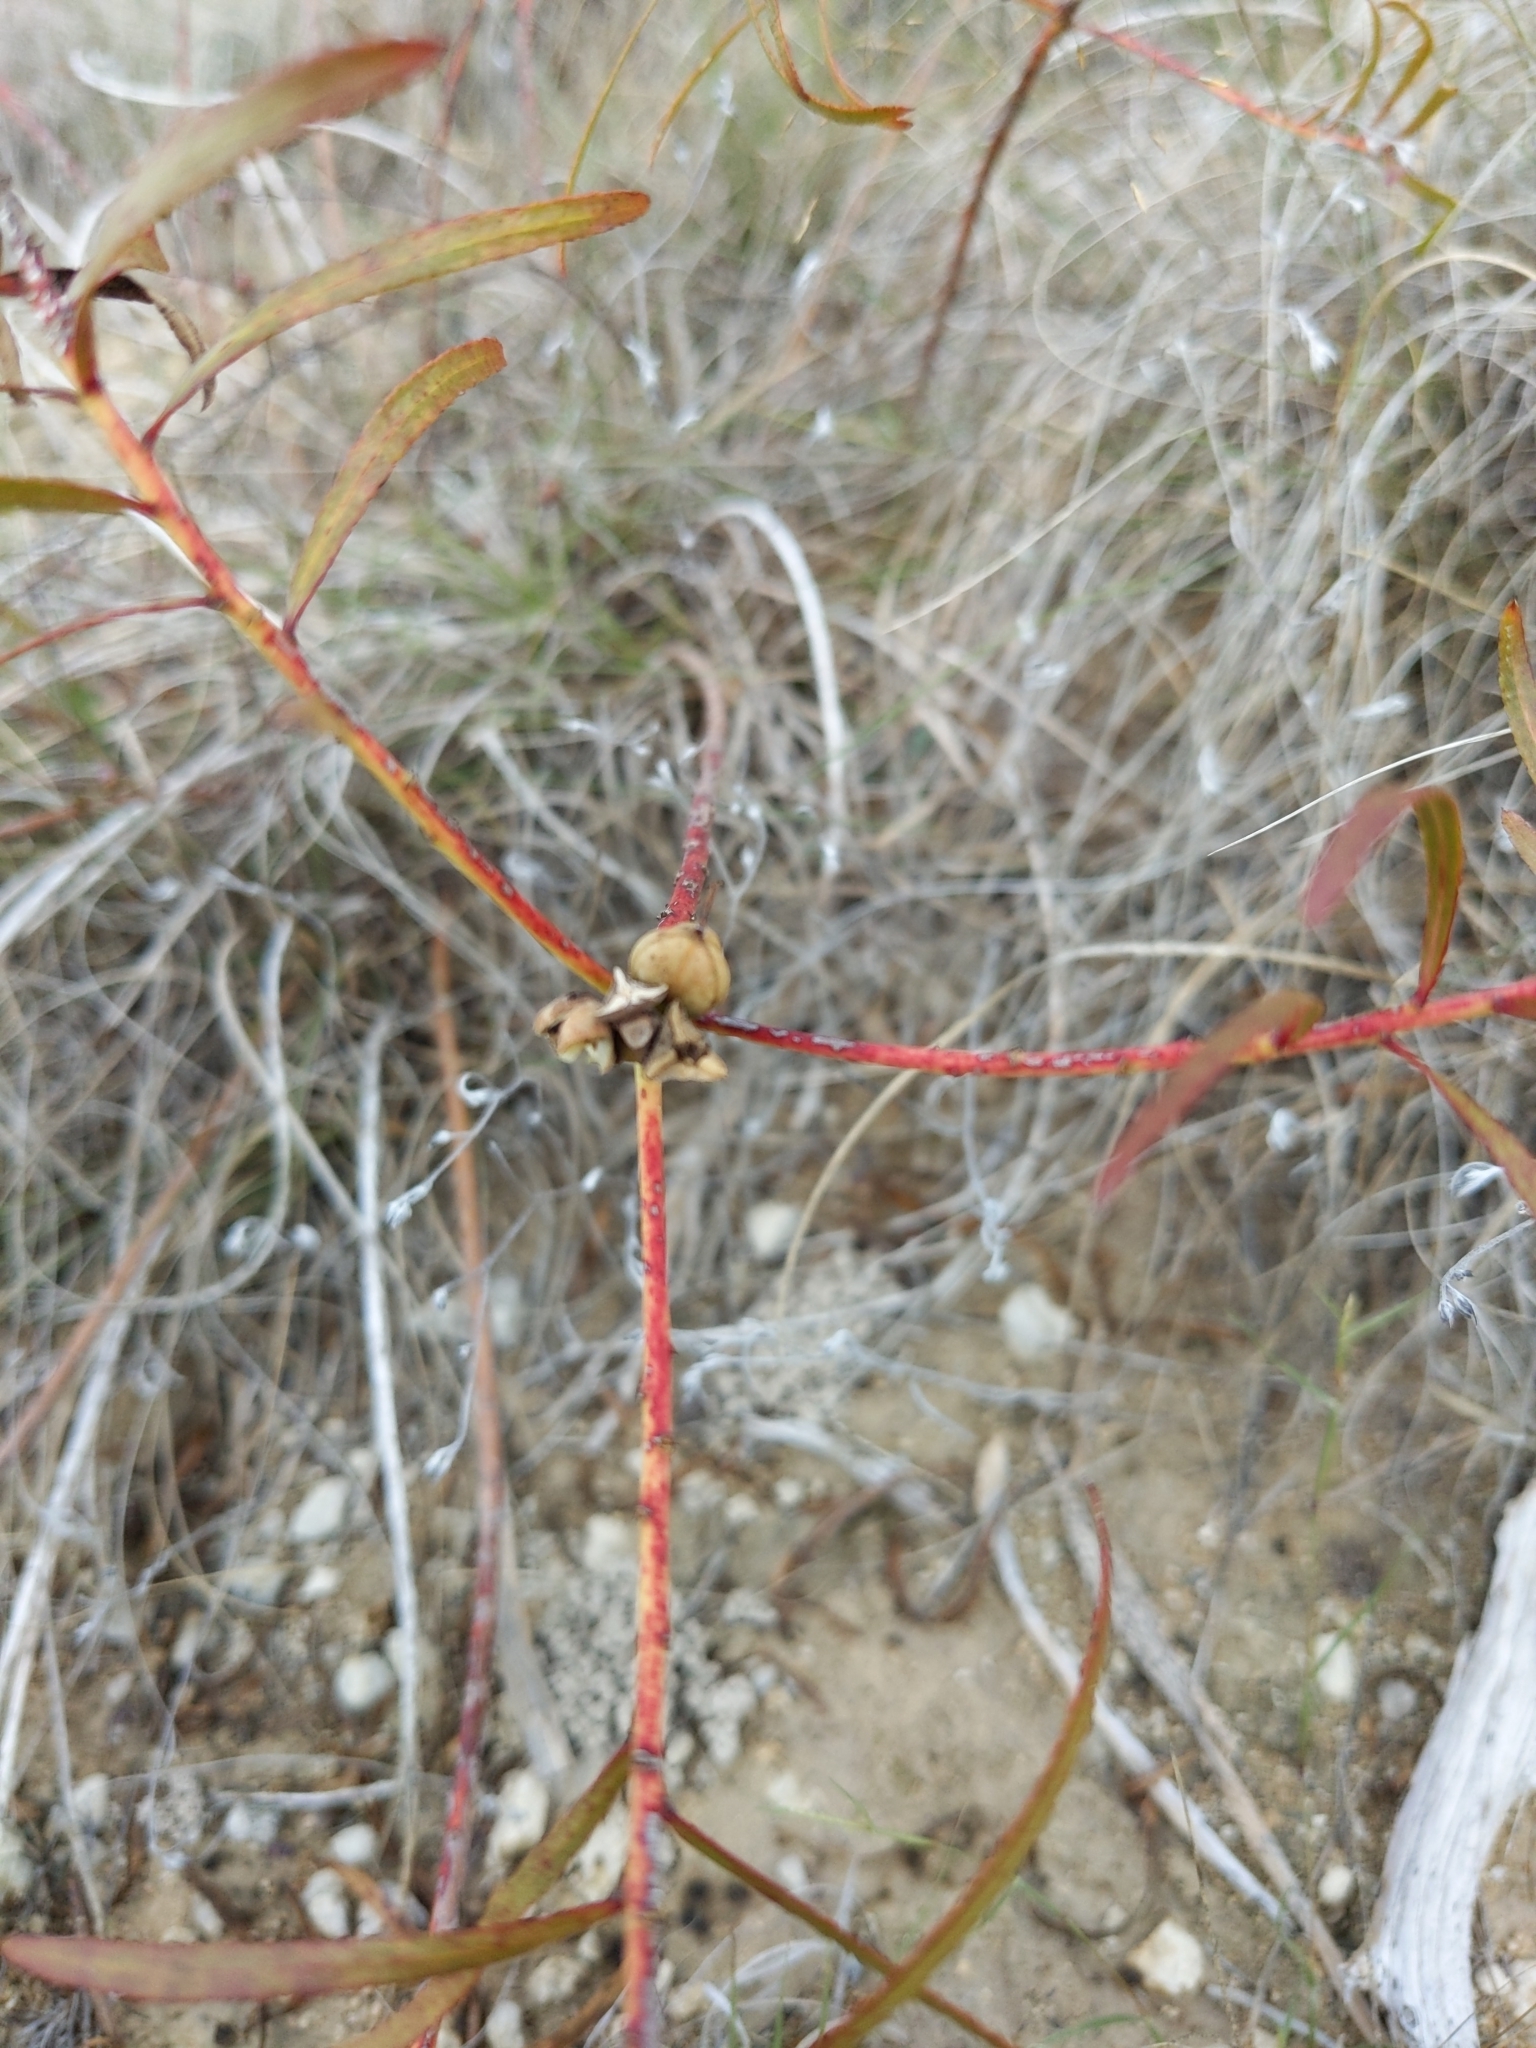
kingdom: Plantae
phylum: Tracheophyta
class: Magnoliopsida
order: Malpighiales
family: Euphorbiaceae
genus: Stillingia
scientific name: Stillingia texana
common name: Texas stillingia
